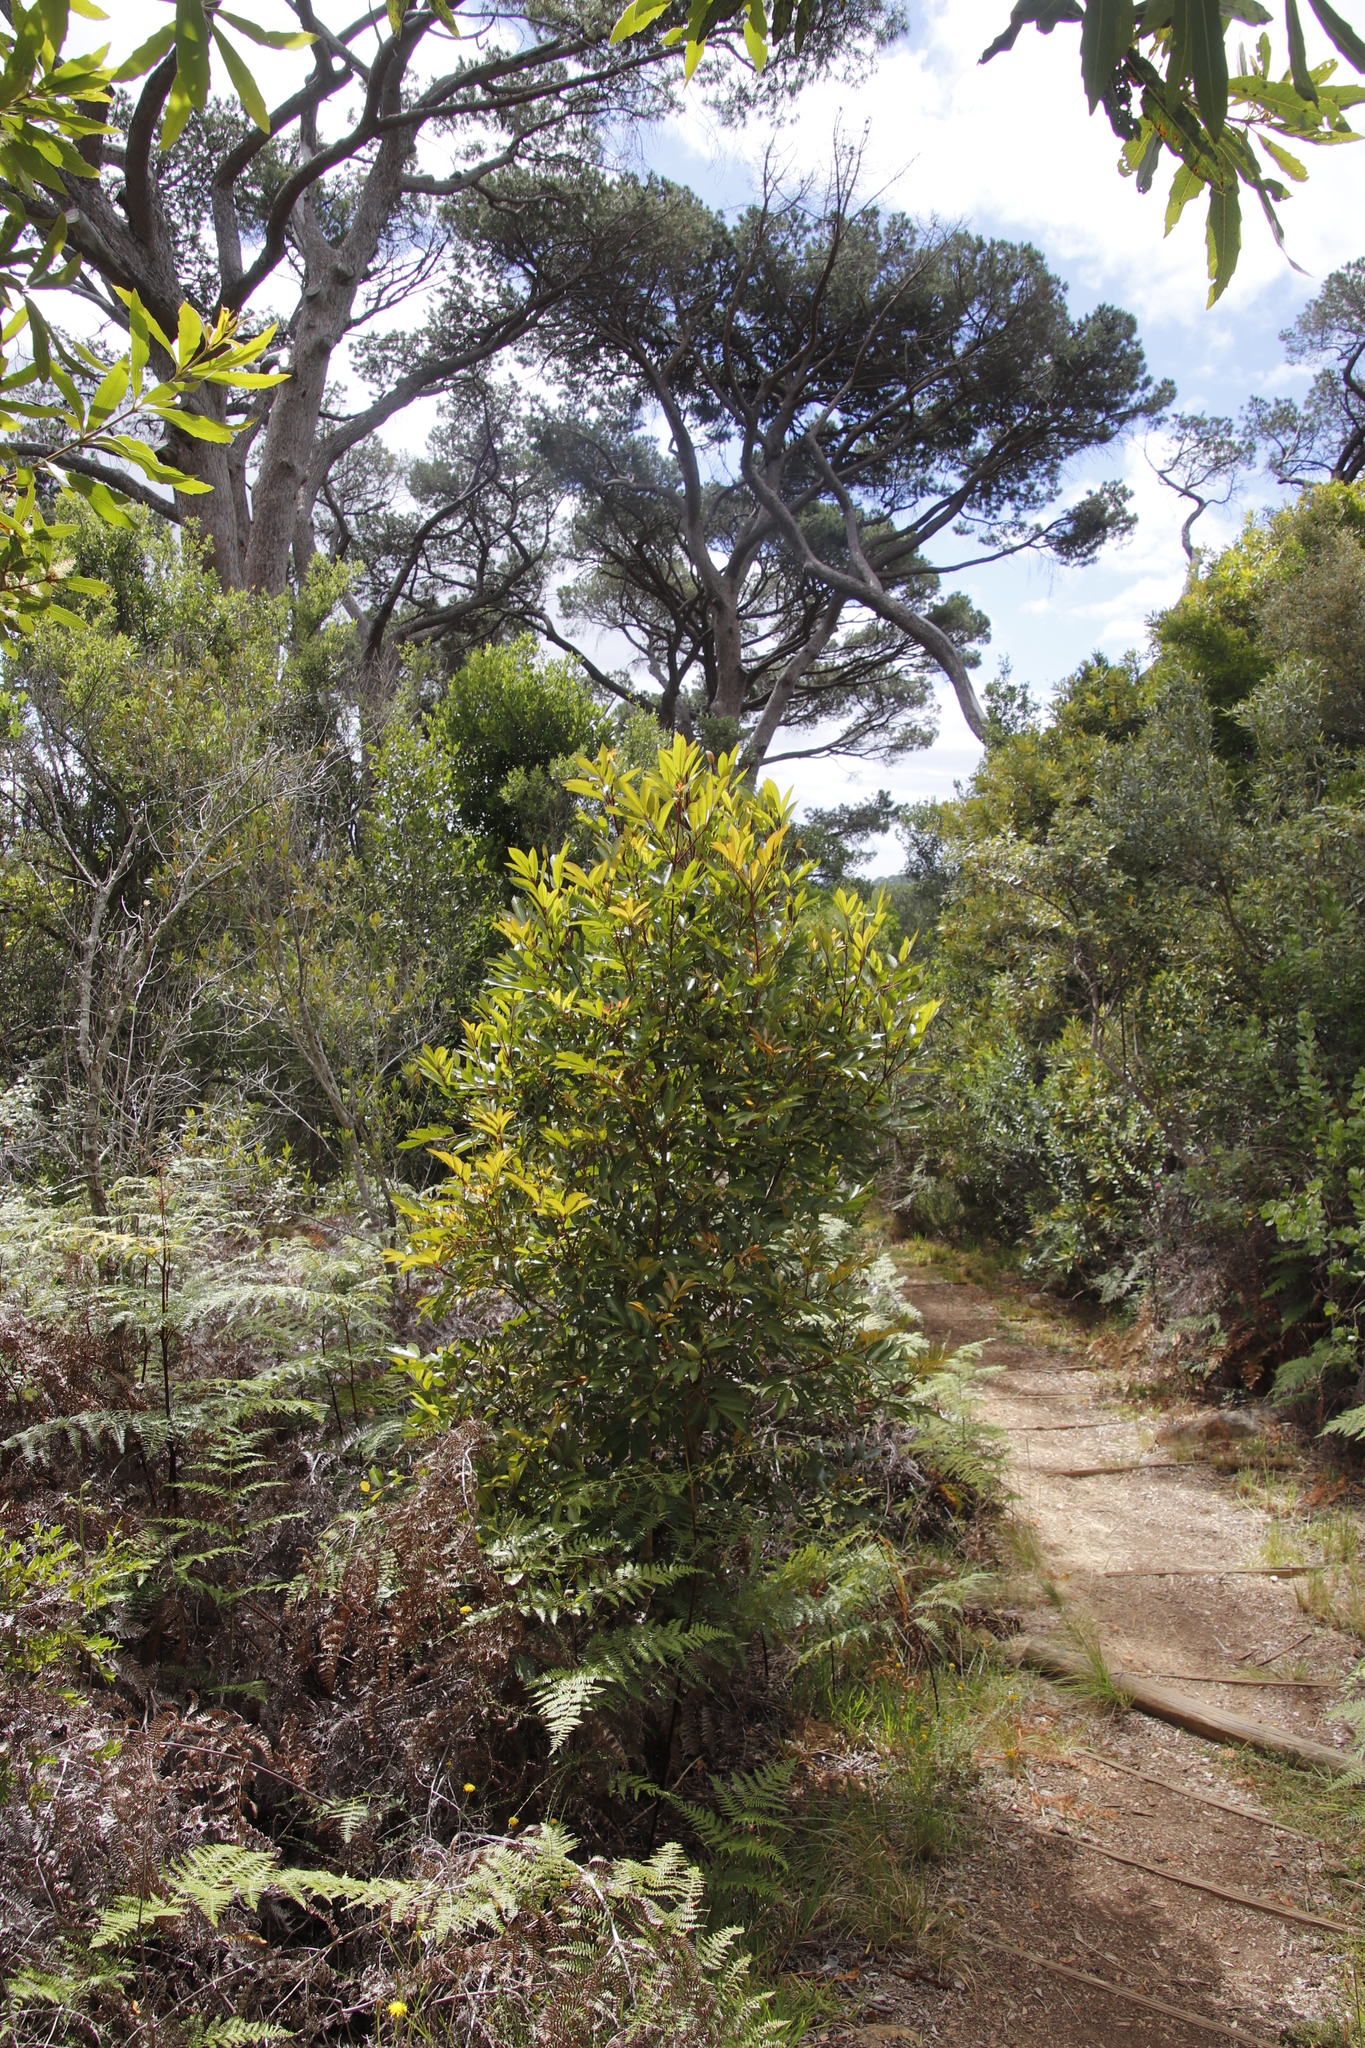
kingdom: Plantae
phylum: Tracheophyta
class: Magnoliopsida
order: Oxalidales
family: Cunoniaceae
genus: Cunonia
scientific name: Cunonia capensis
